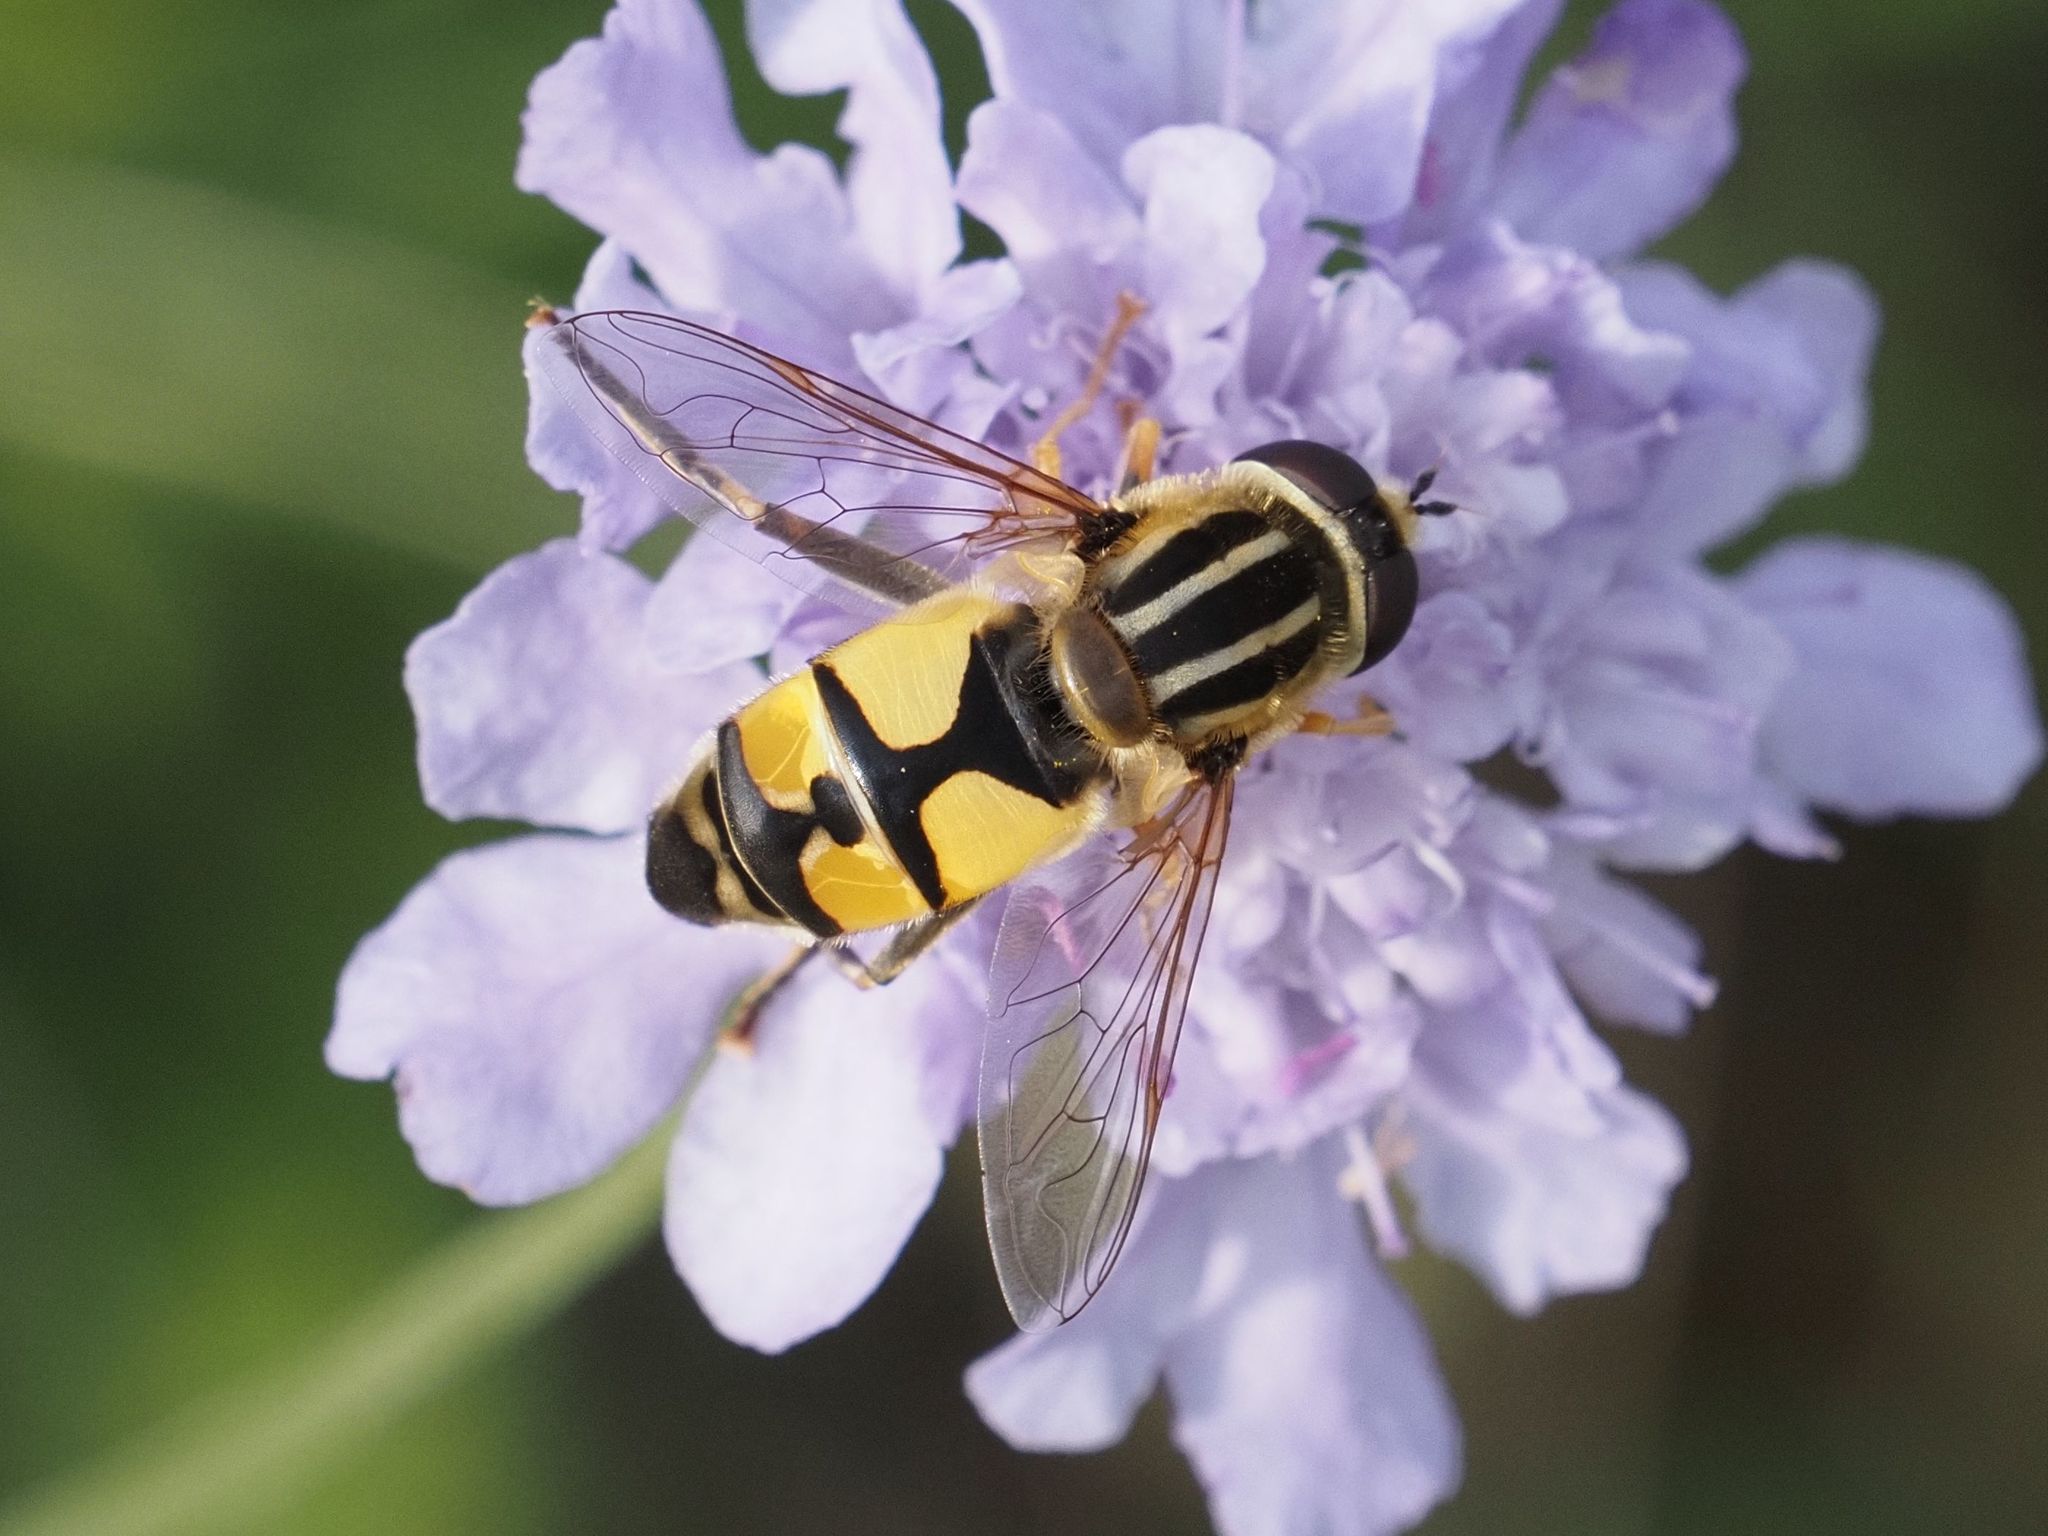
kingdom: Animalia
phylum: Arthropoda
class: Insecta
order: Diptera
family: Syrphidae
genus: Helophilus
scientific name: Helophilus trivittatus
